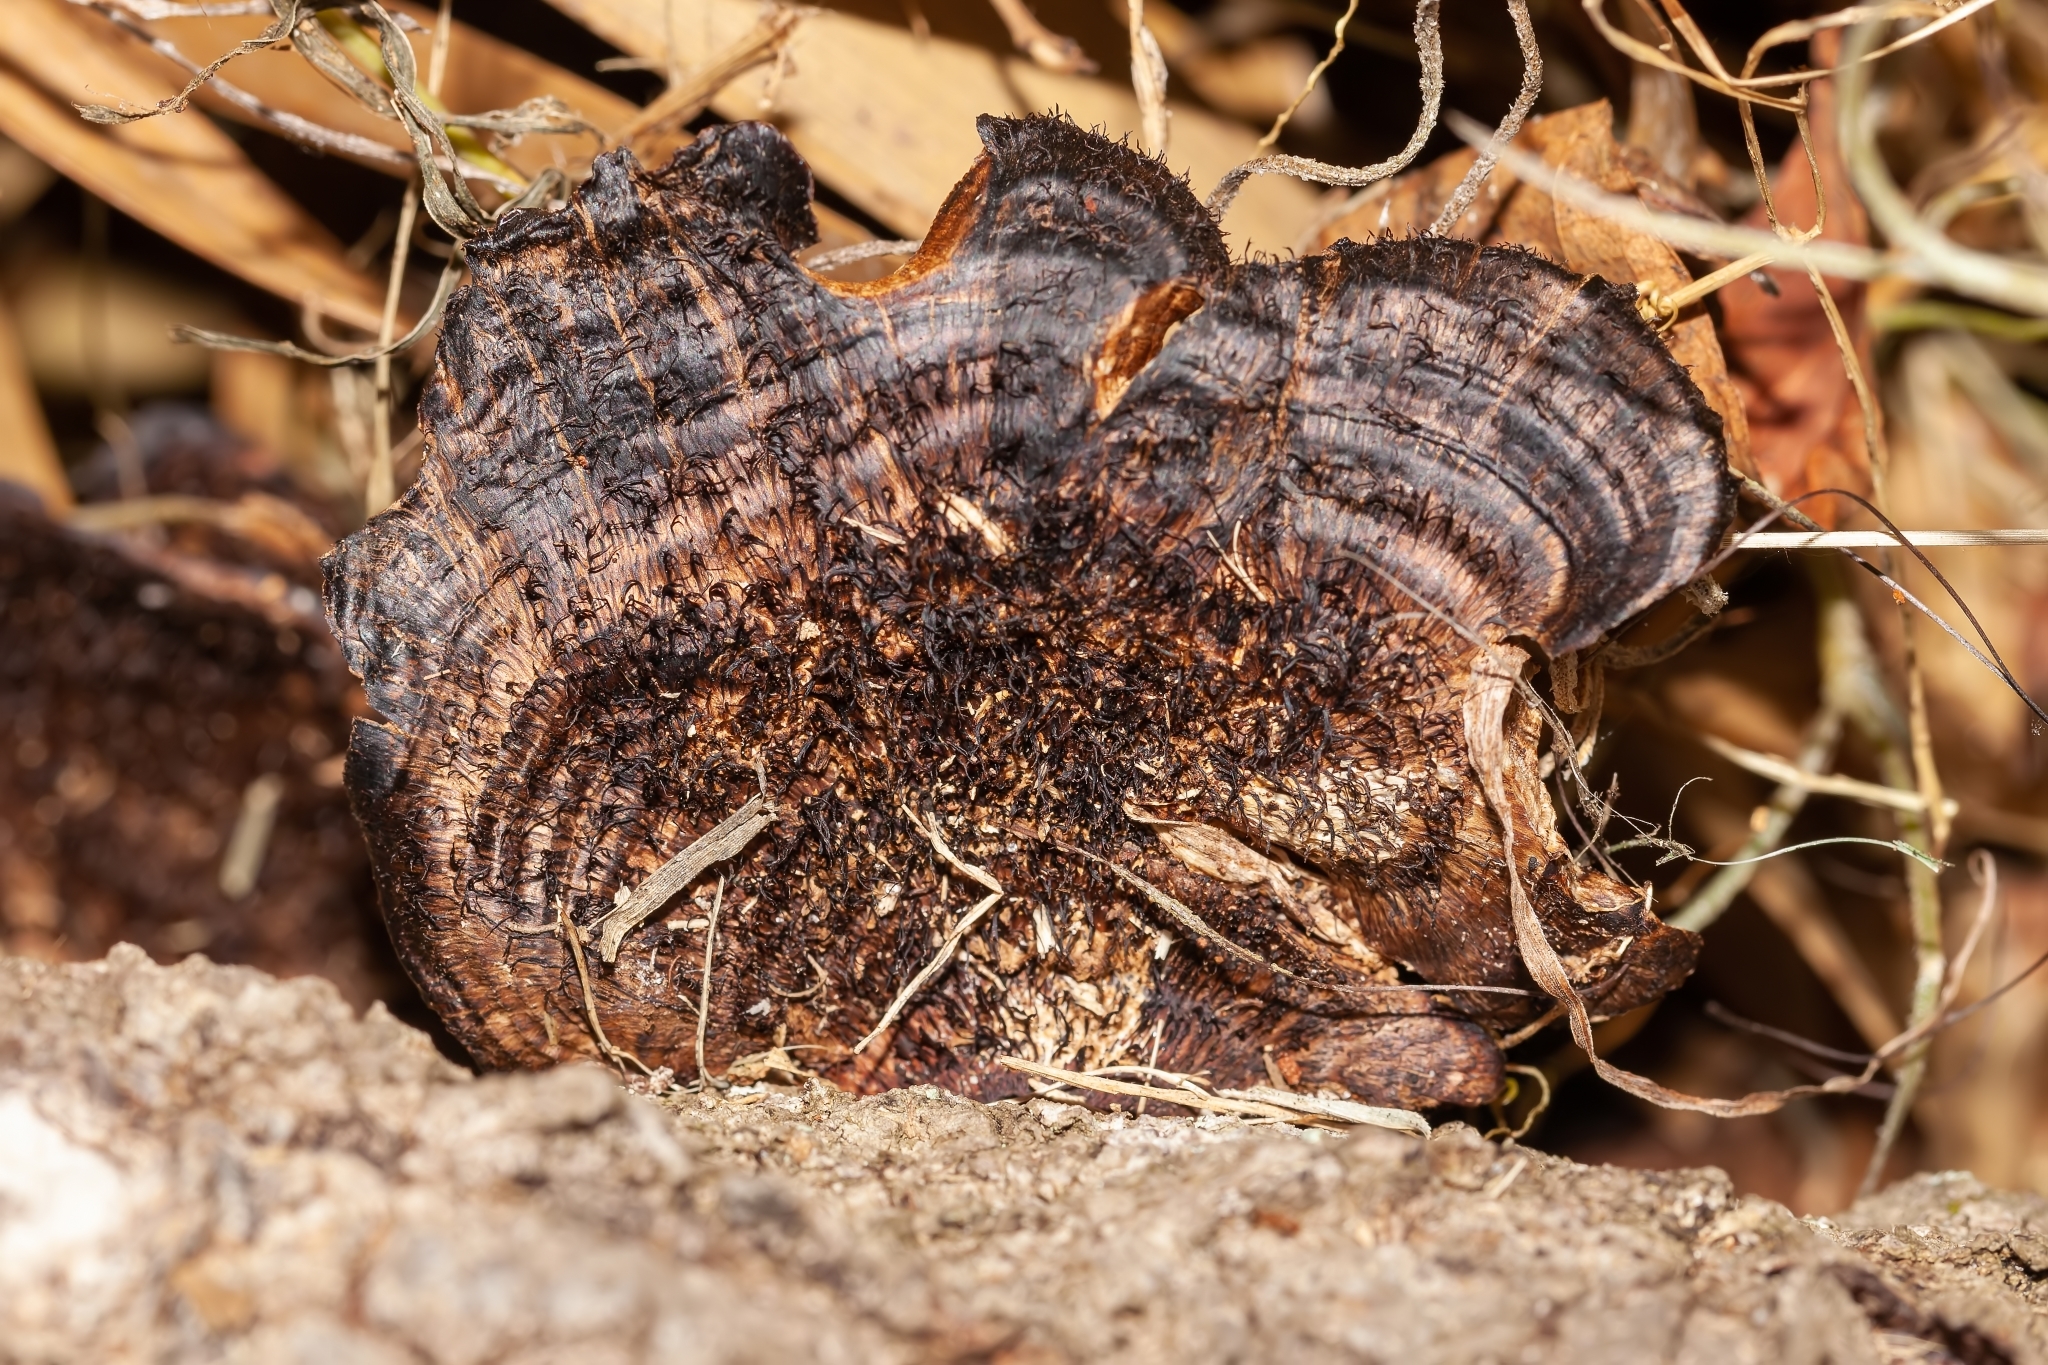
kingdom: Fungi
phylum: Basidiomycota
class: Agaricomycetes
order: Polyporales
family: Cerrenaceae
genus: Cerrena
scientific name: Cerrena hydnoides
